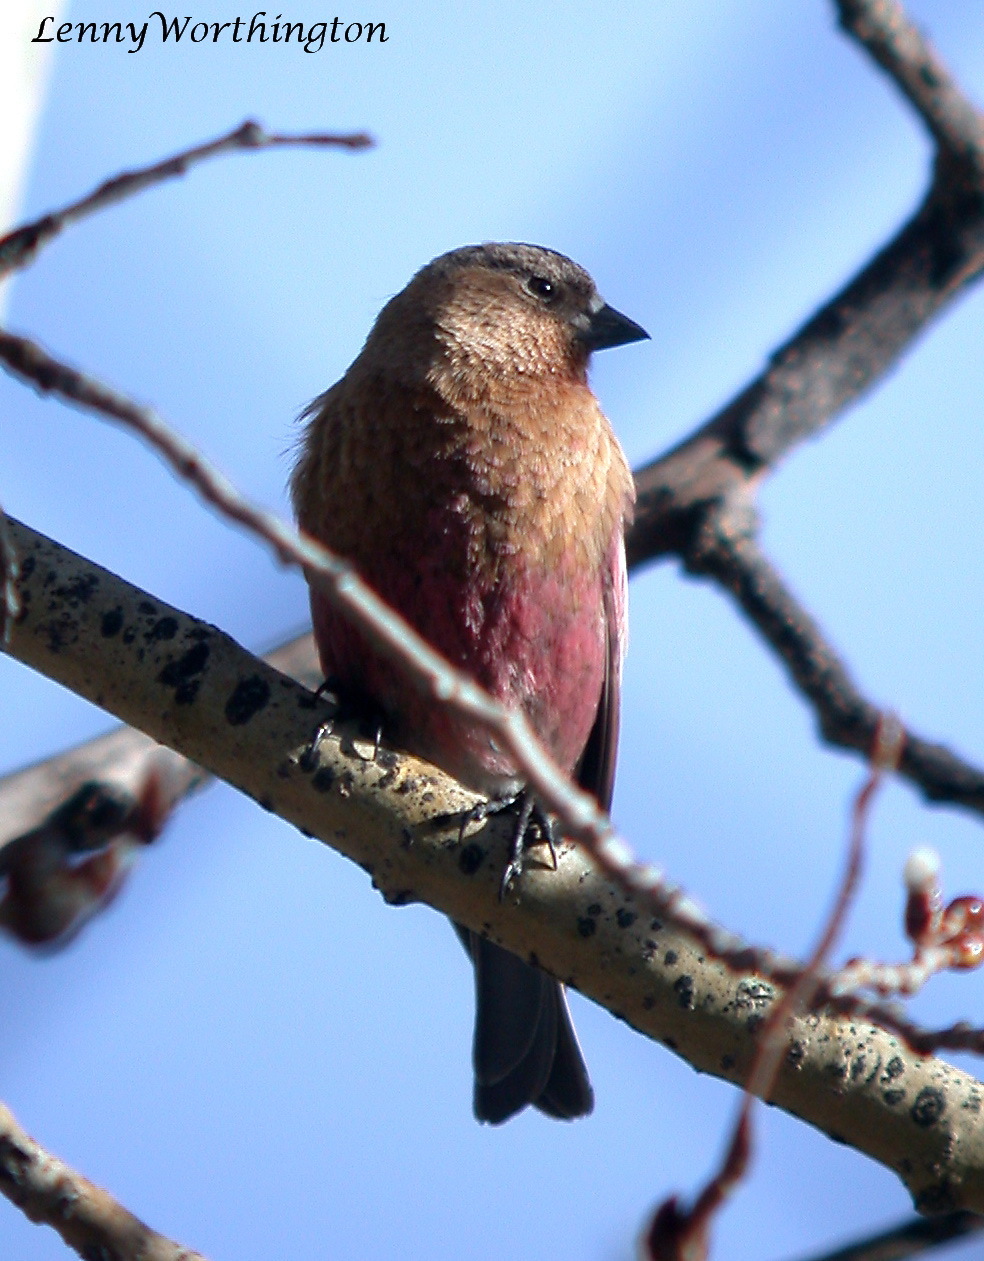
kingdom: Animalia
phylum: Chordata
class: Aves
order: Passeriformes
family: Fringillidae
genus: Leucosticte
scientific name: Leucosticte australis
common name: Brown-capped rosy-finch
